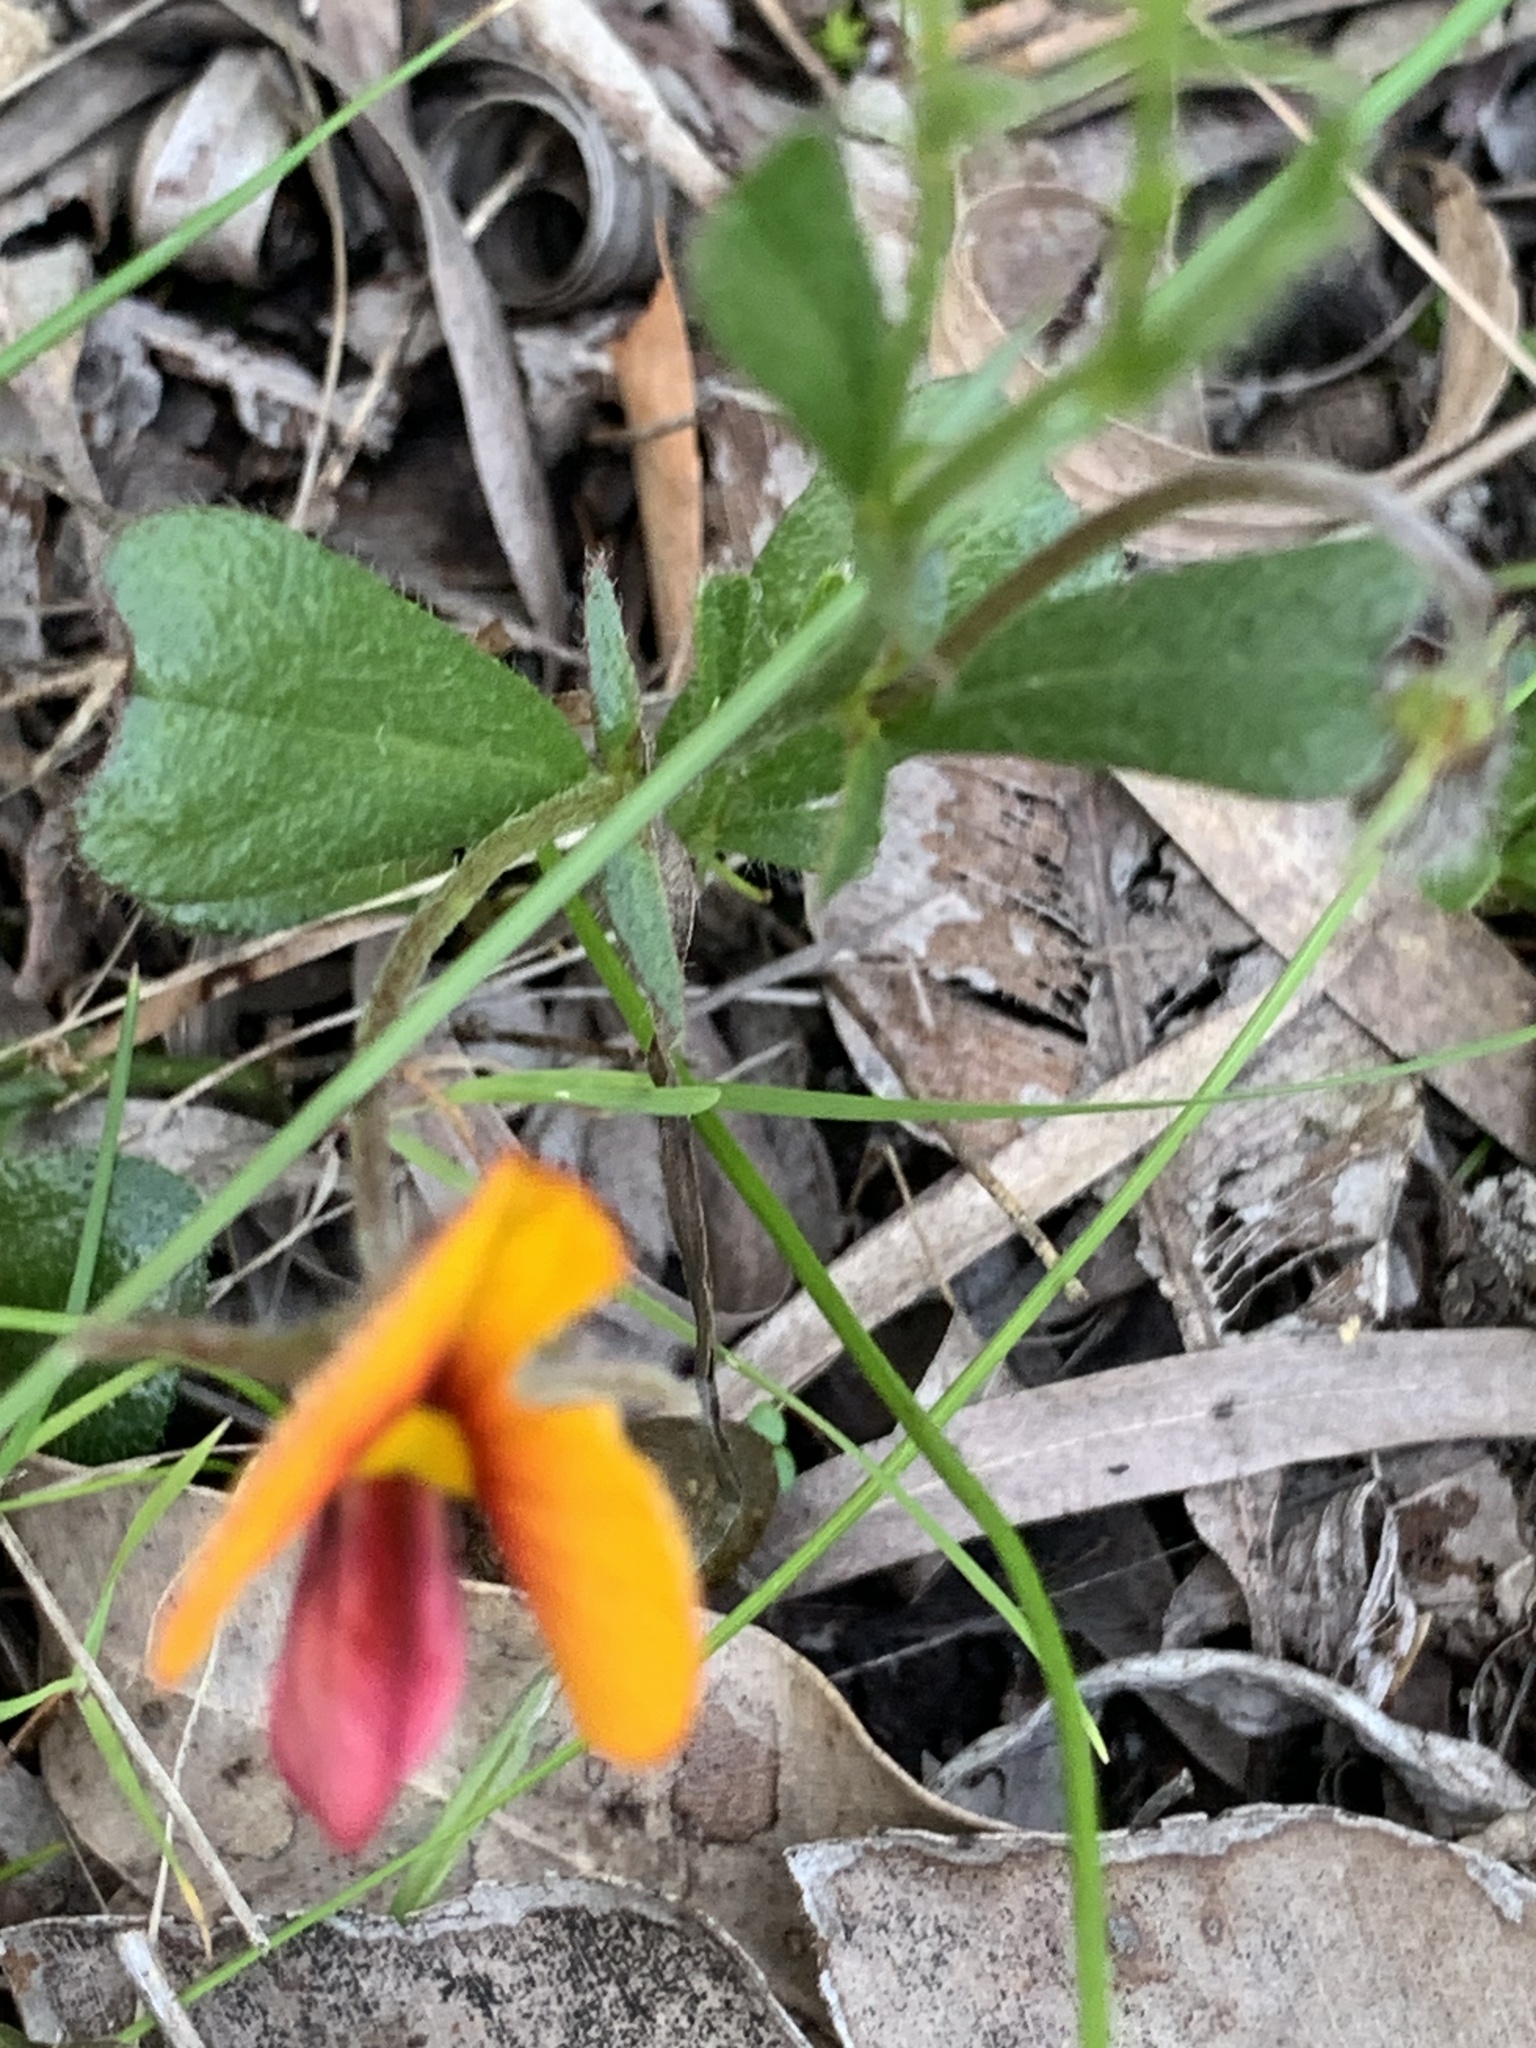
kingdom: Plantae
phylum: Tracheophyta
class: Magnoliopsida
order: Fabales
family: Fabaceae
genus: Isotropis
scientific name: Isotropis cuneifolia
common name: Granny bonnets
